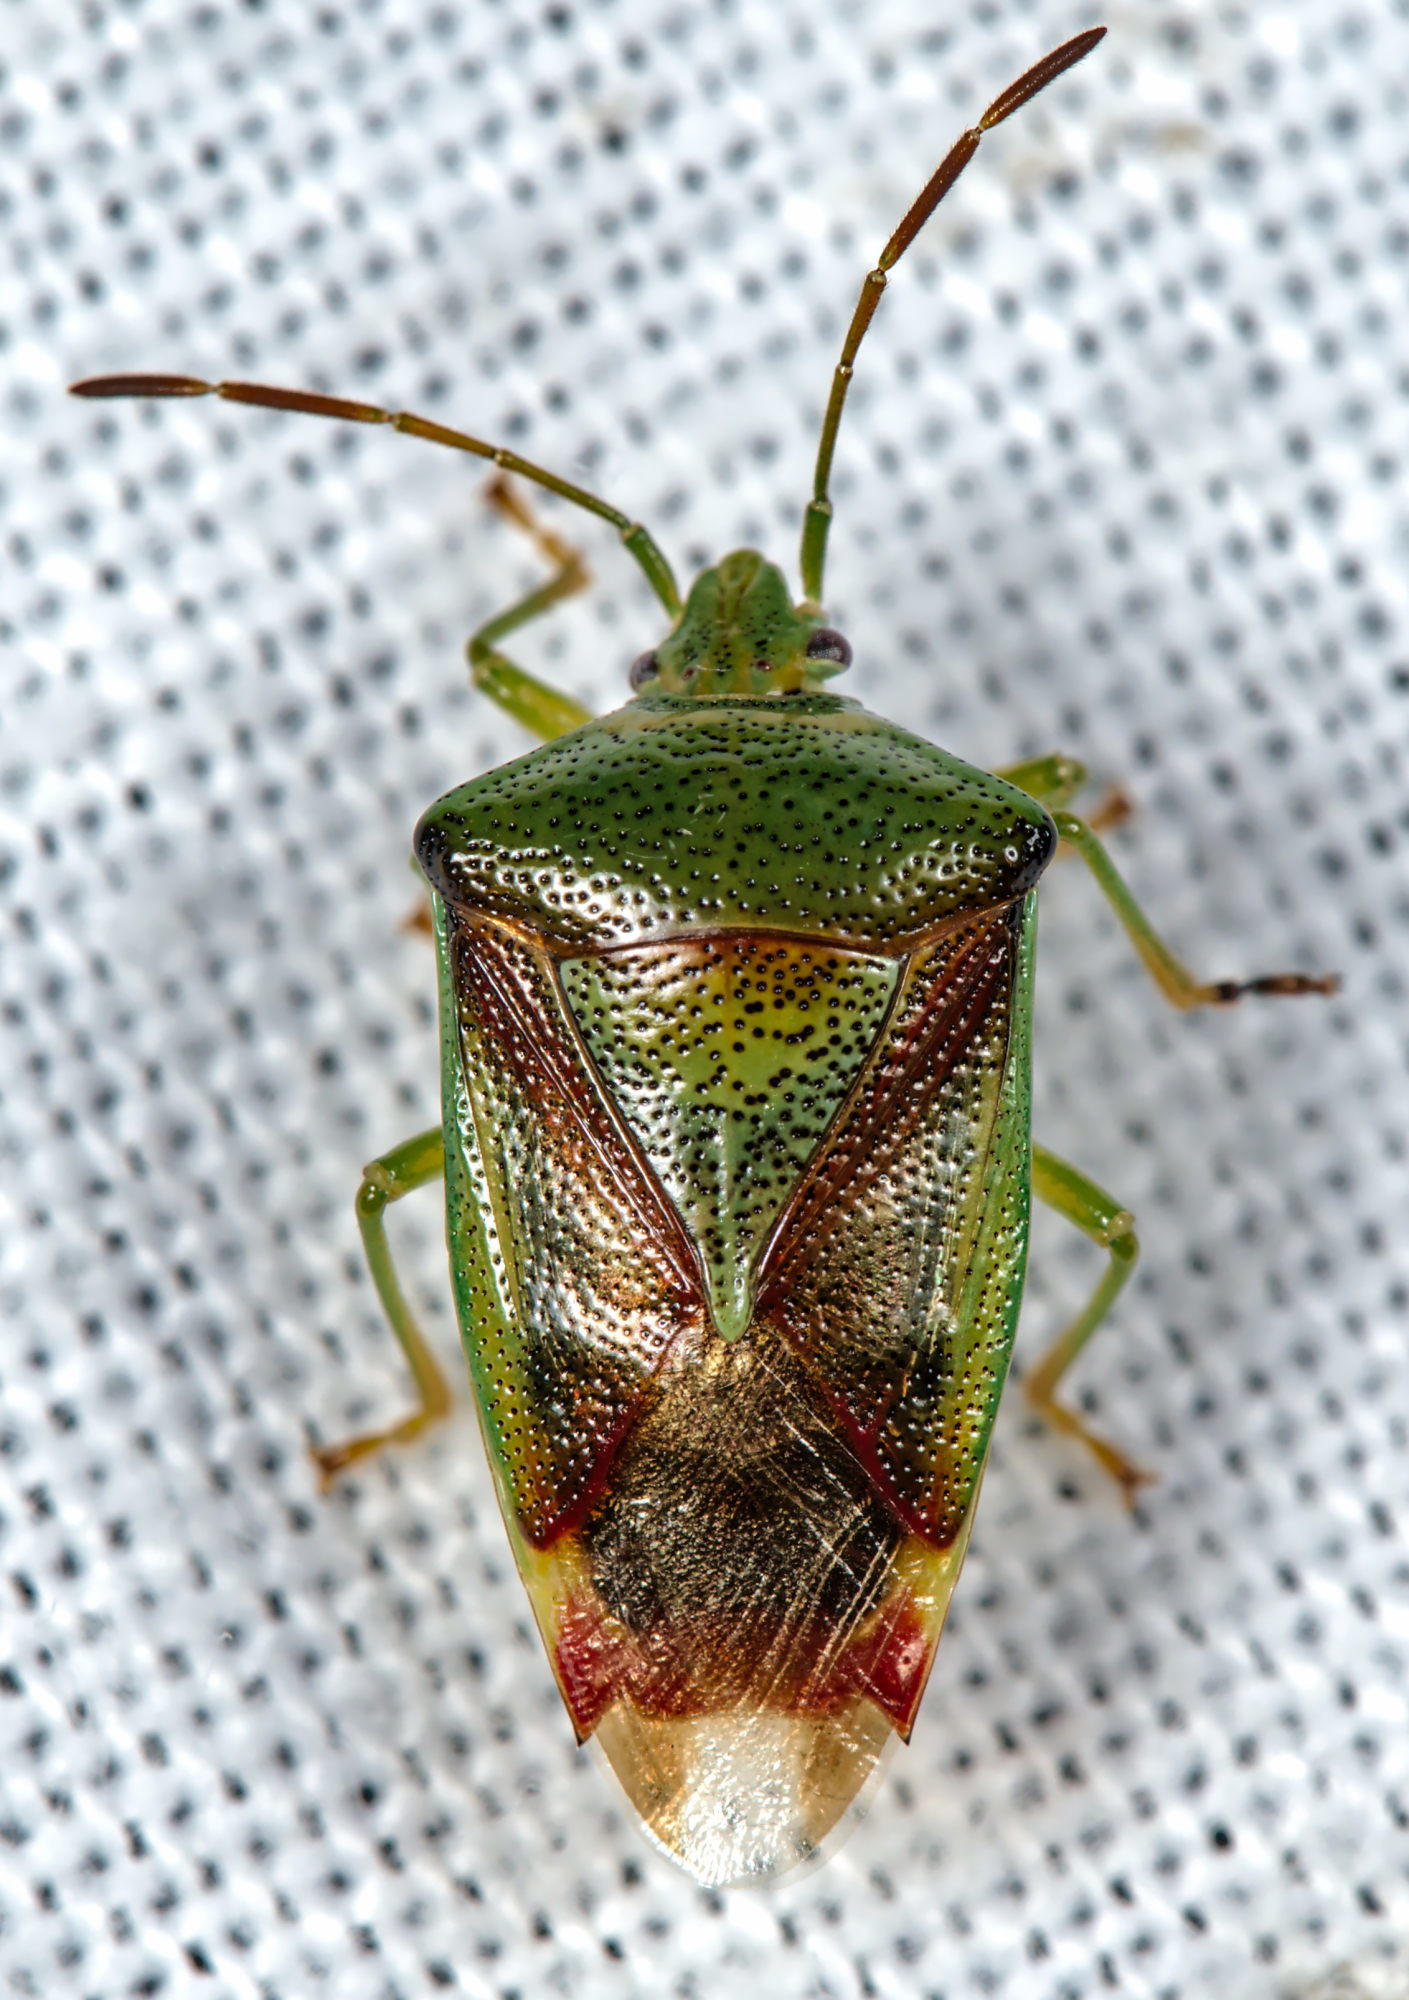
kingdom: Animalia
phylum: Arthropoda
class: Insecta
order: Hemiptera
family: Acanthosomatidae
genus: Elasmostethus
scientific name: Elasmostethus interstinctus
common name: Birch shieldbug
